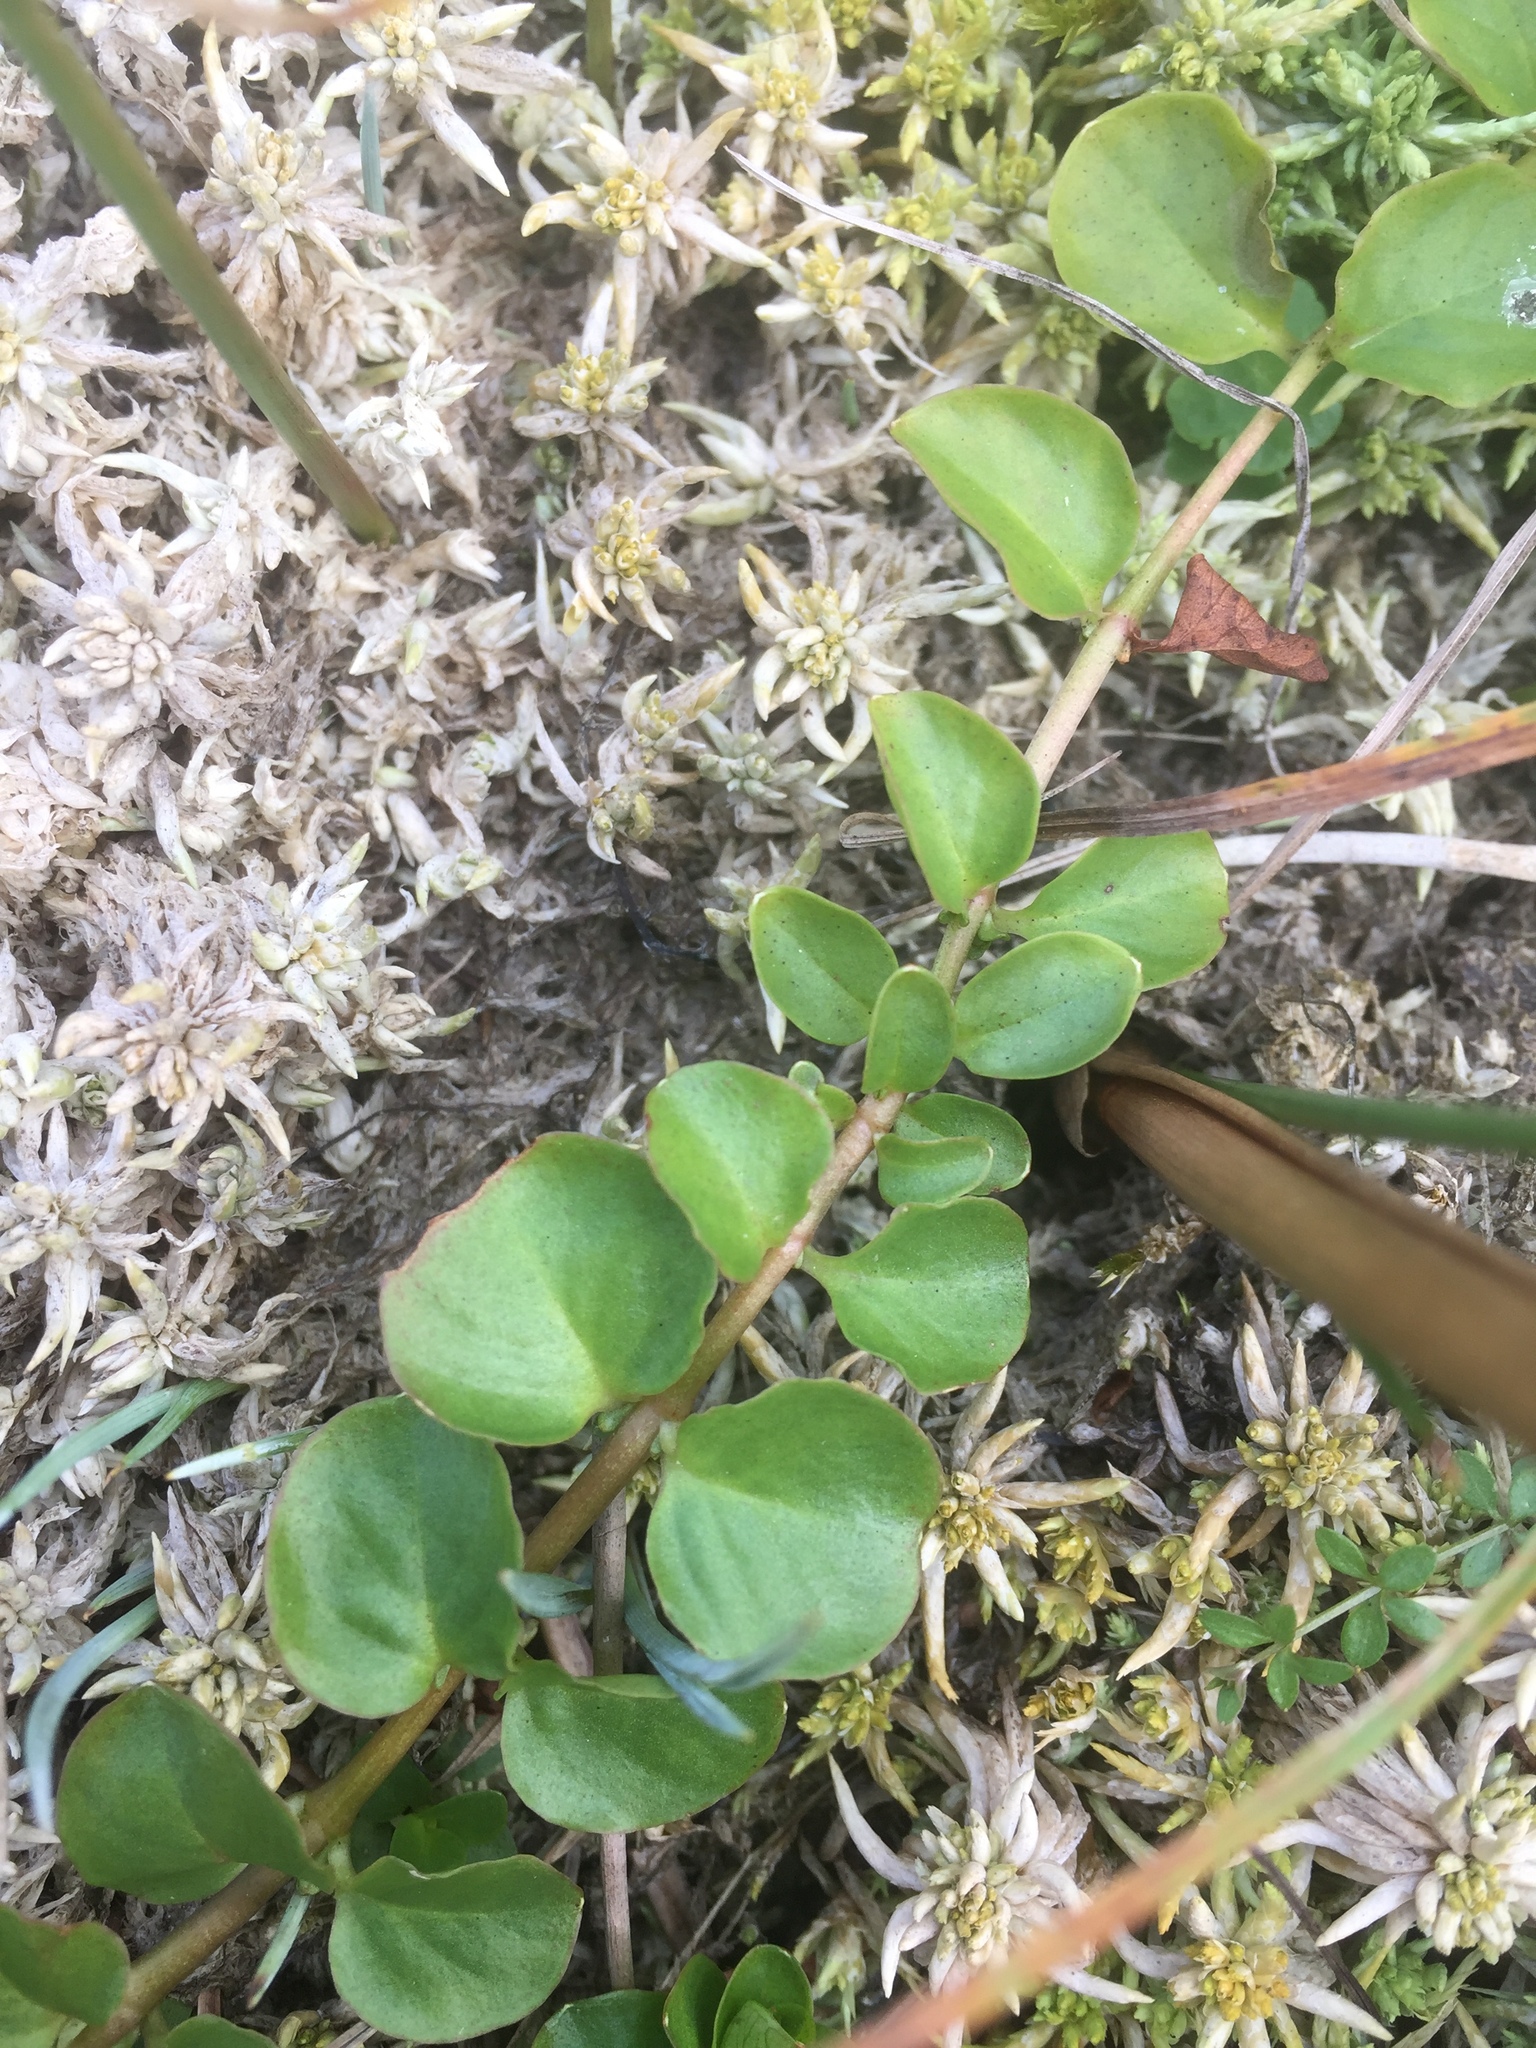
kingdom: Plantae
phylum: Tracheophyta
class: Magnoliopsida
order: Ericales
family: Primulaceae
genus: Lysimachia
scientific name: Lysimachia nummularia
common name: Moneywort
